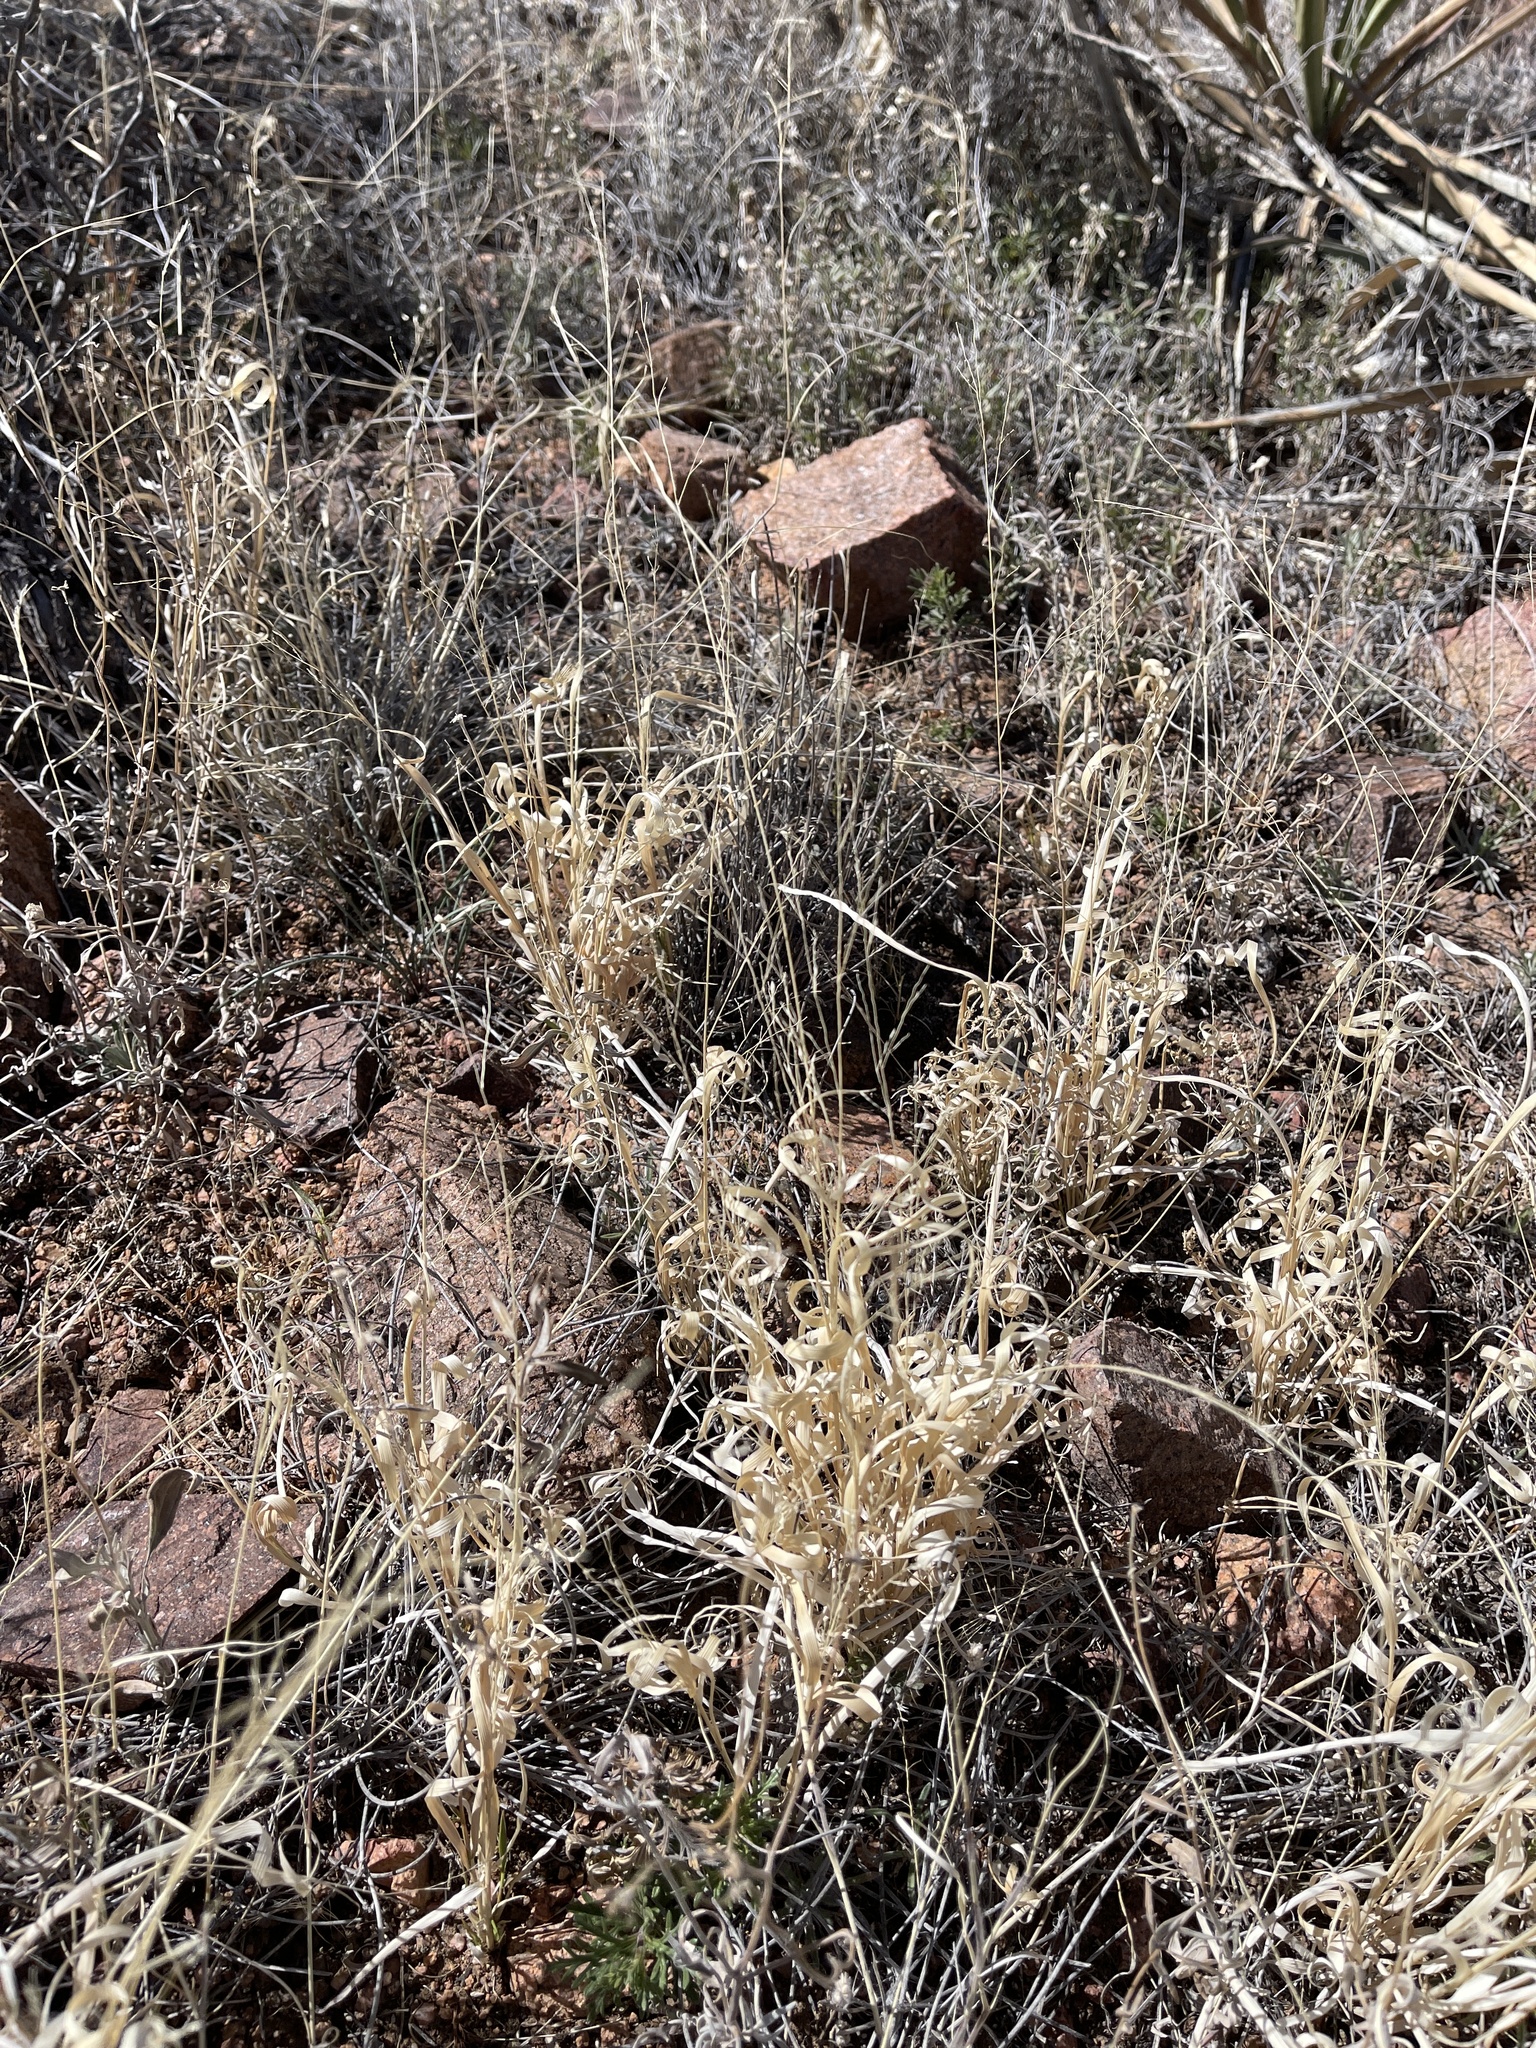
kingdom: Plantae
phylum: Tracheophyta
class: Liliopsida
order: Poales
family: Poaceae
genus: Panicum
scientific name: Panicum hallii
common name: Hall's witchgrass
